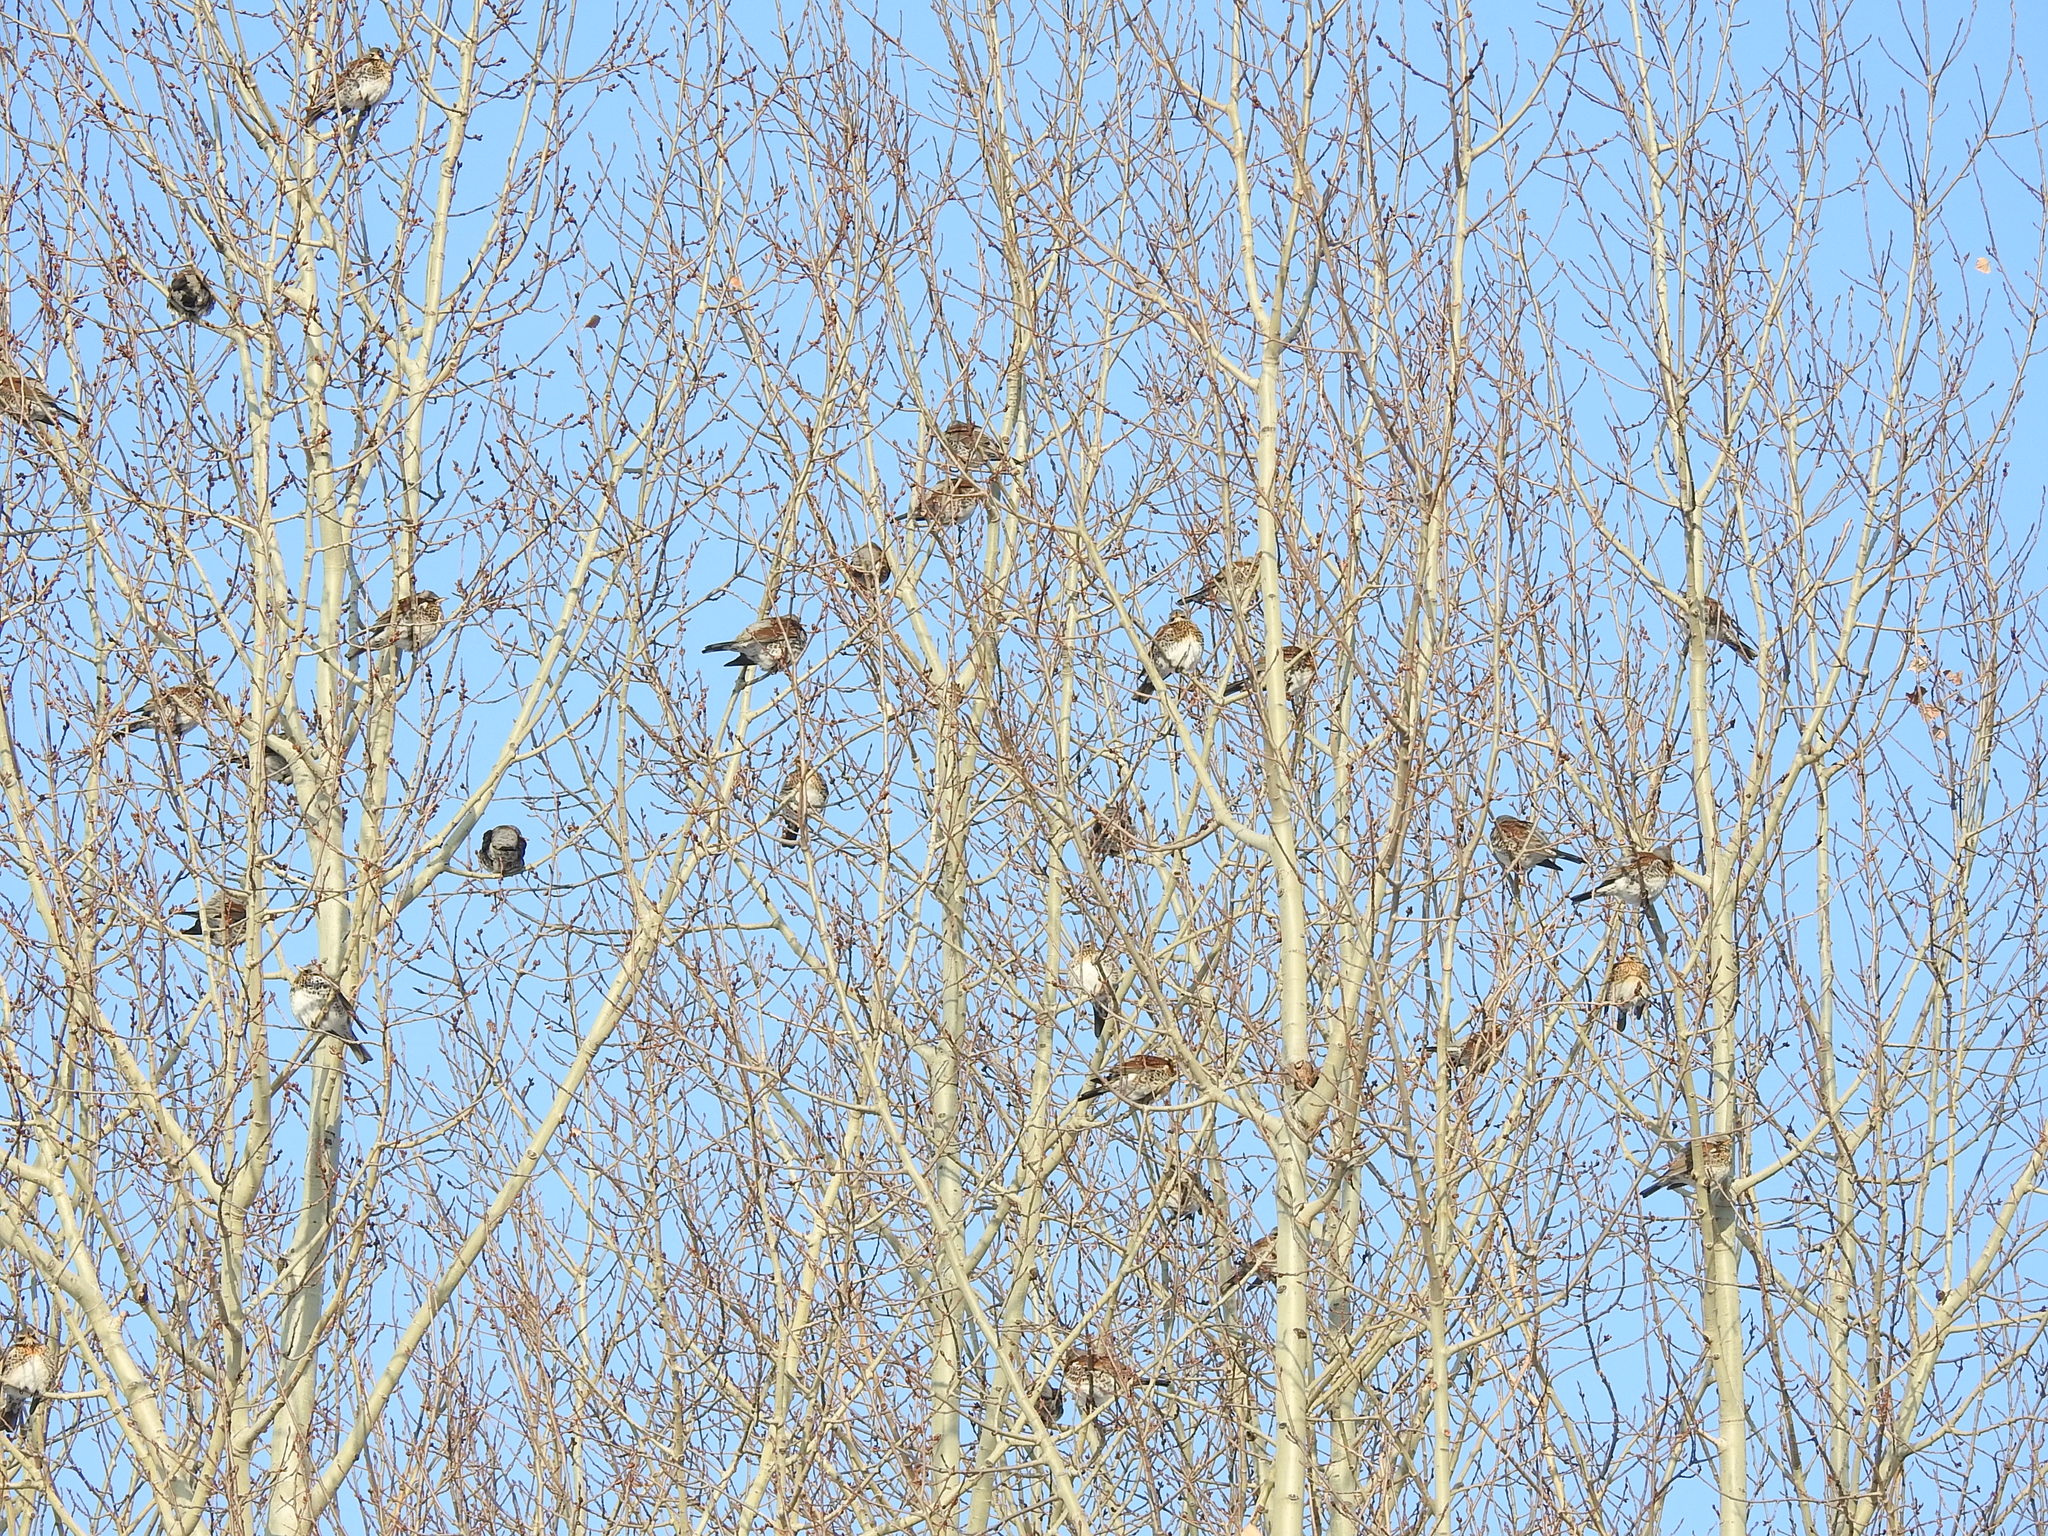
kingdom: Animalia
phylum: Chordata
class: Aves
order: Passeriformes
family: Turdidae
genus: Turdus
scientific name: Turdus pilaris
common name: Fieldfare
